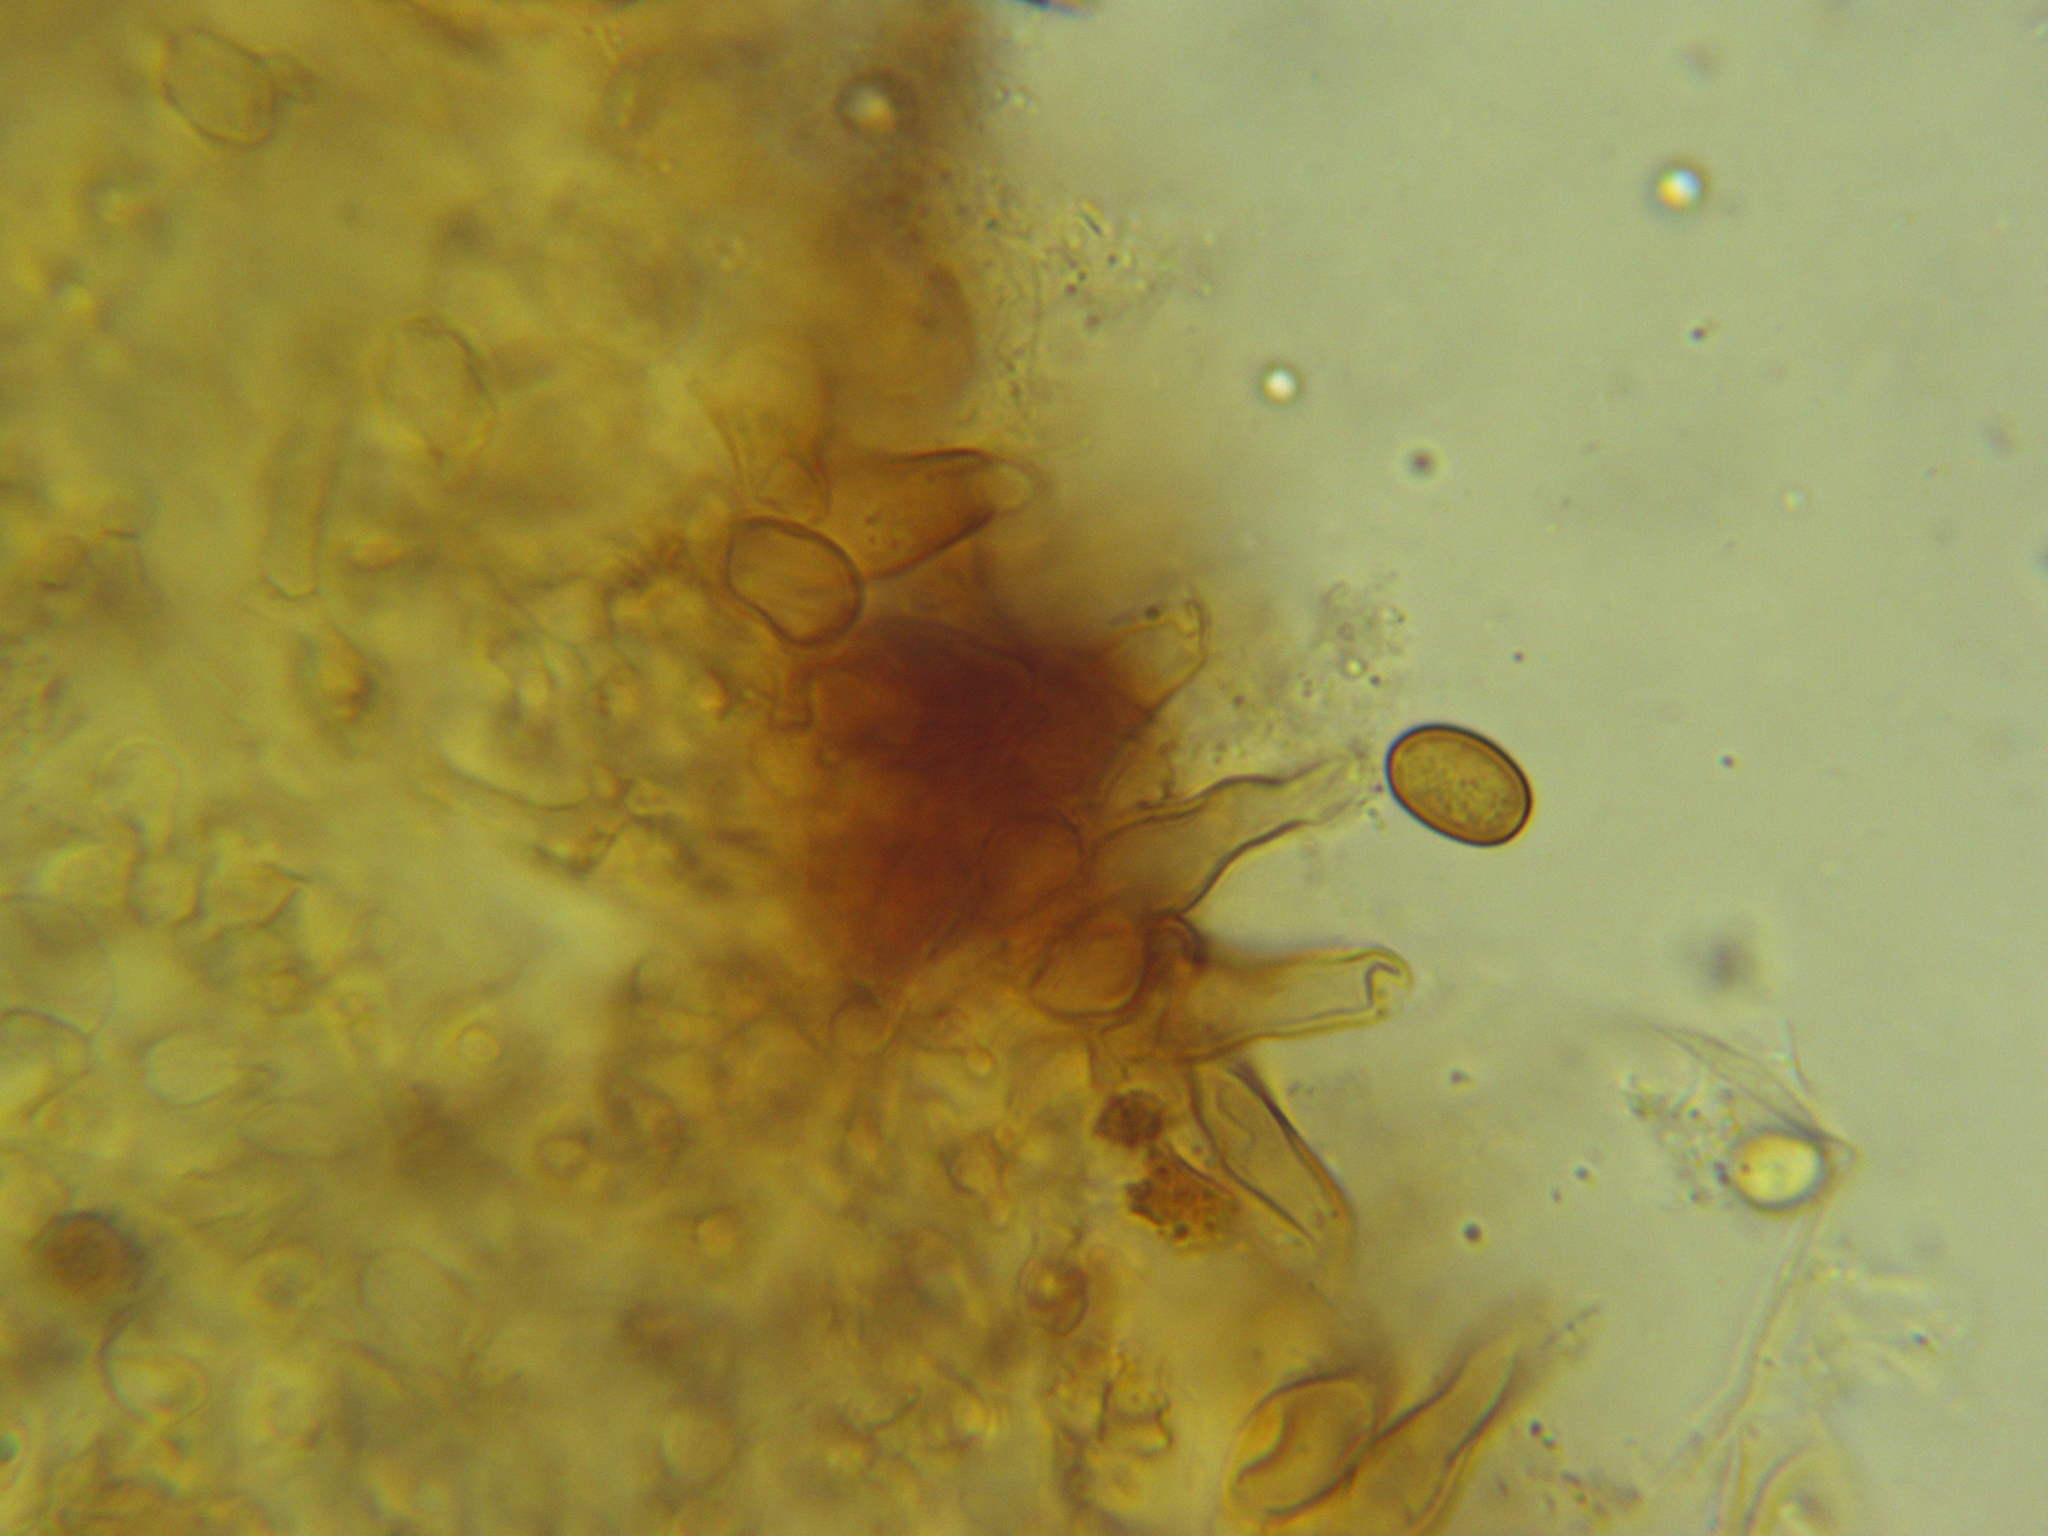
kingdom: Fungi
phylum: Basidiomycota
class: Agaricomycetes
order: Agaricales
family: Strophariaceae
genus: Pholiota
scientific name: Pholiota limonella
